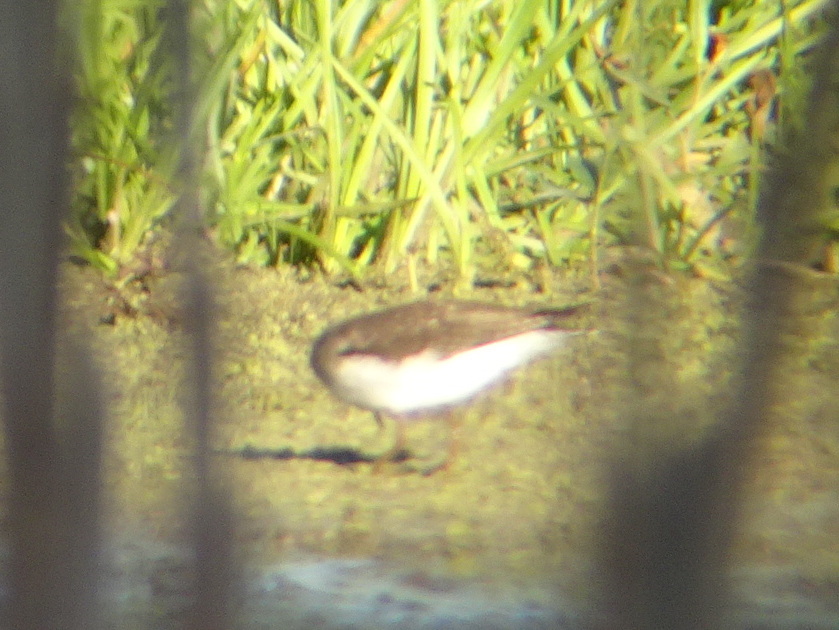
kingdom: Animalia
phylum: Chordata
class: Aves
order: Charadriiformes
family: Scolopacidae
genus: Tringa
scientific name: Tringa solitaria
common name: Solitary sandpiper
